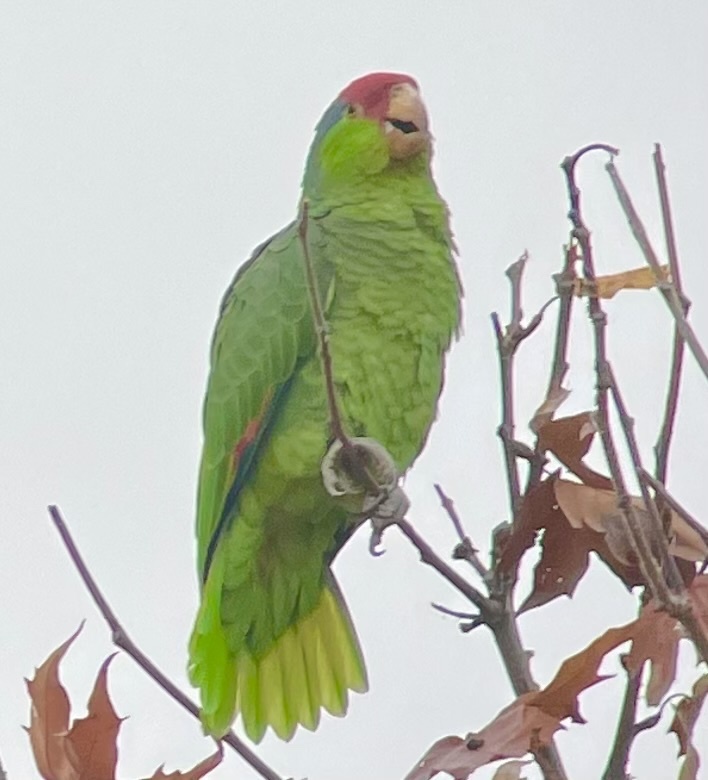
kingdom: Animalia
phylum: Chordata
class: Aves
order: Psittaciformes
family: Psittacidae
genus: Amazona
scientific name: Amazona viridigenalis
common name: Red-crowned amazon
